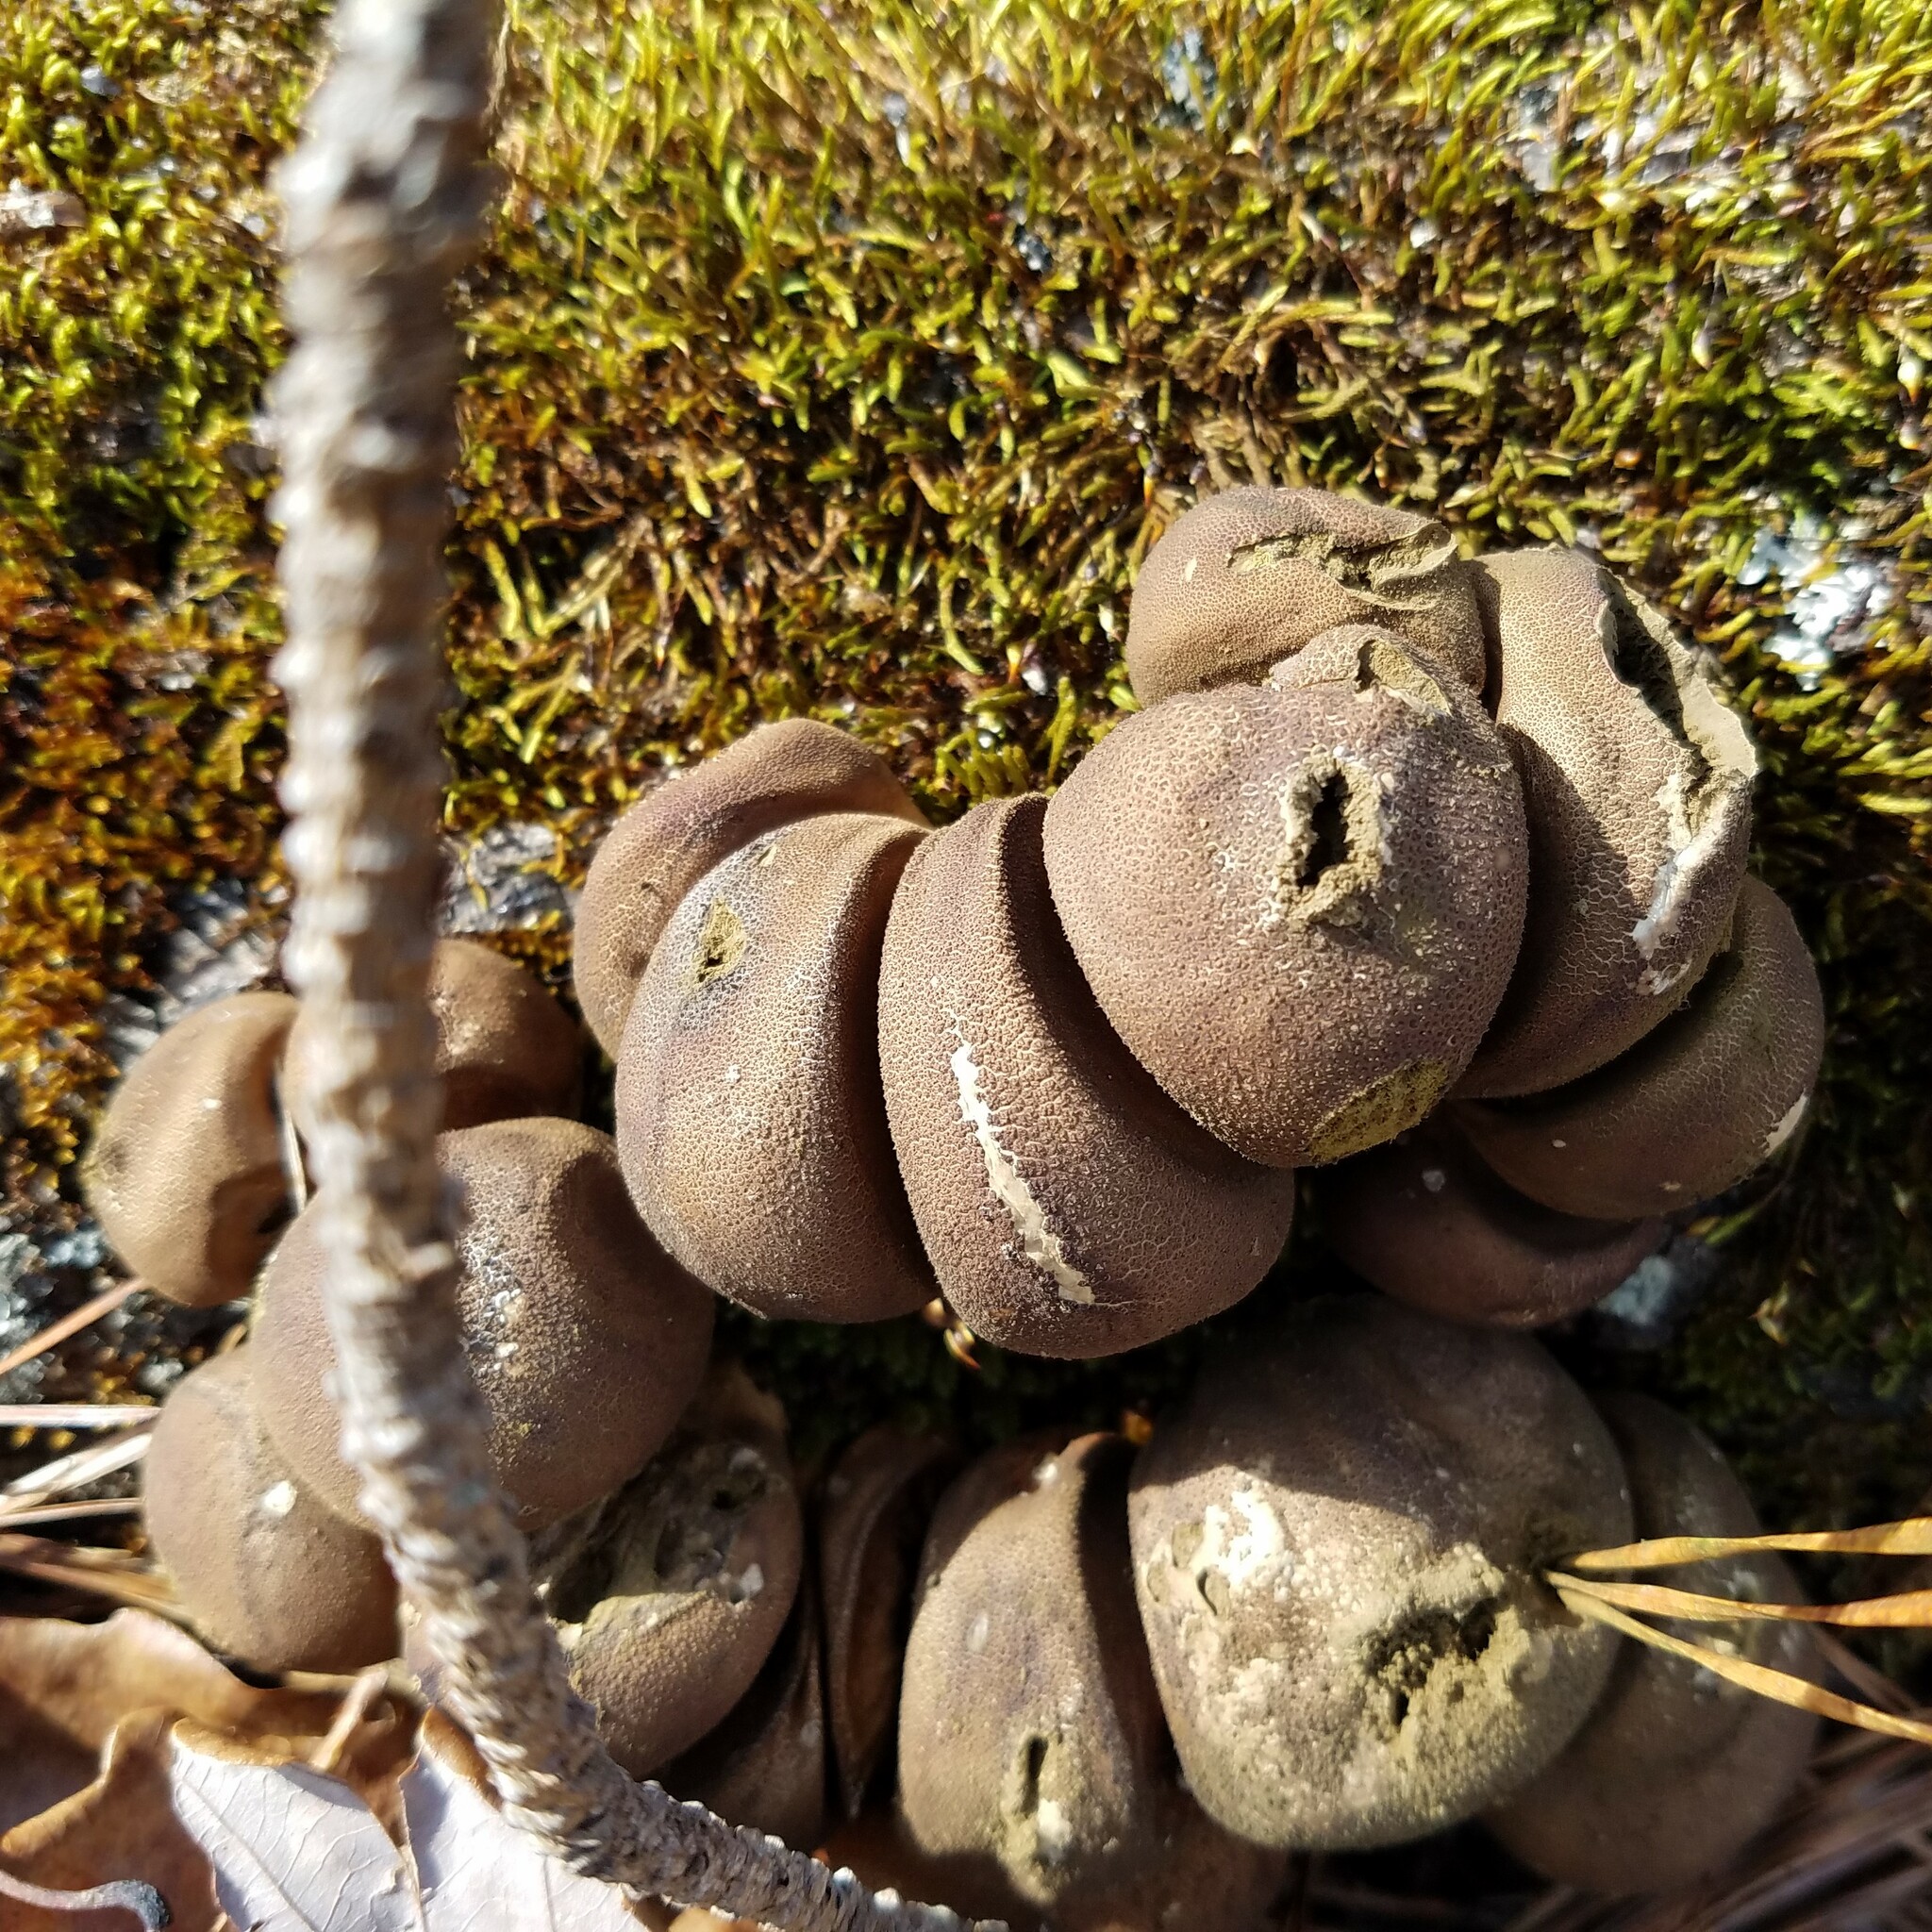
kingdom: Fungi
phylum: Basidiomycota
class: Agaricomycetes
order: Agaricales
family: Lycoperdaceae
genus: Apioperdon
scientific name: Apioperdon pyriforme
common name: Pear-shaped puffball
